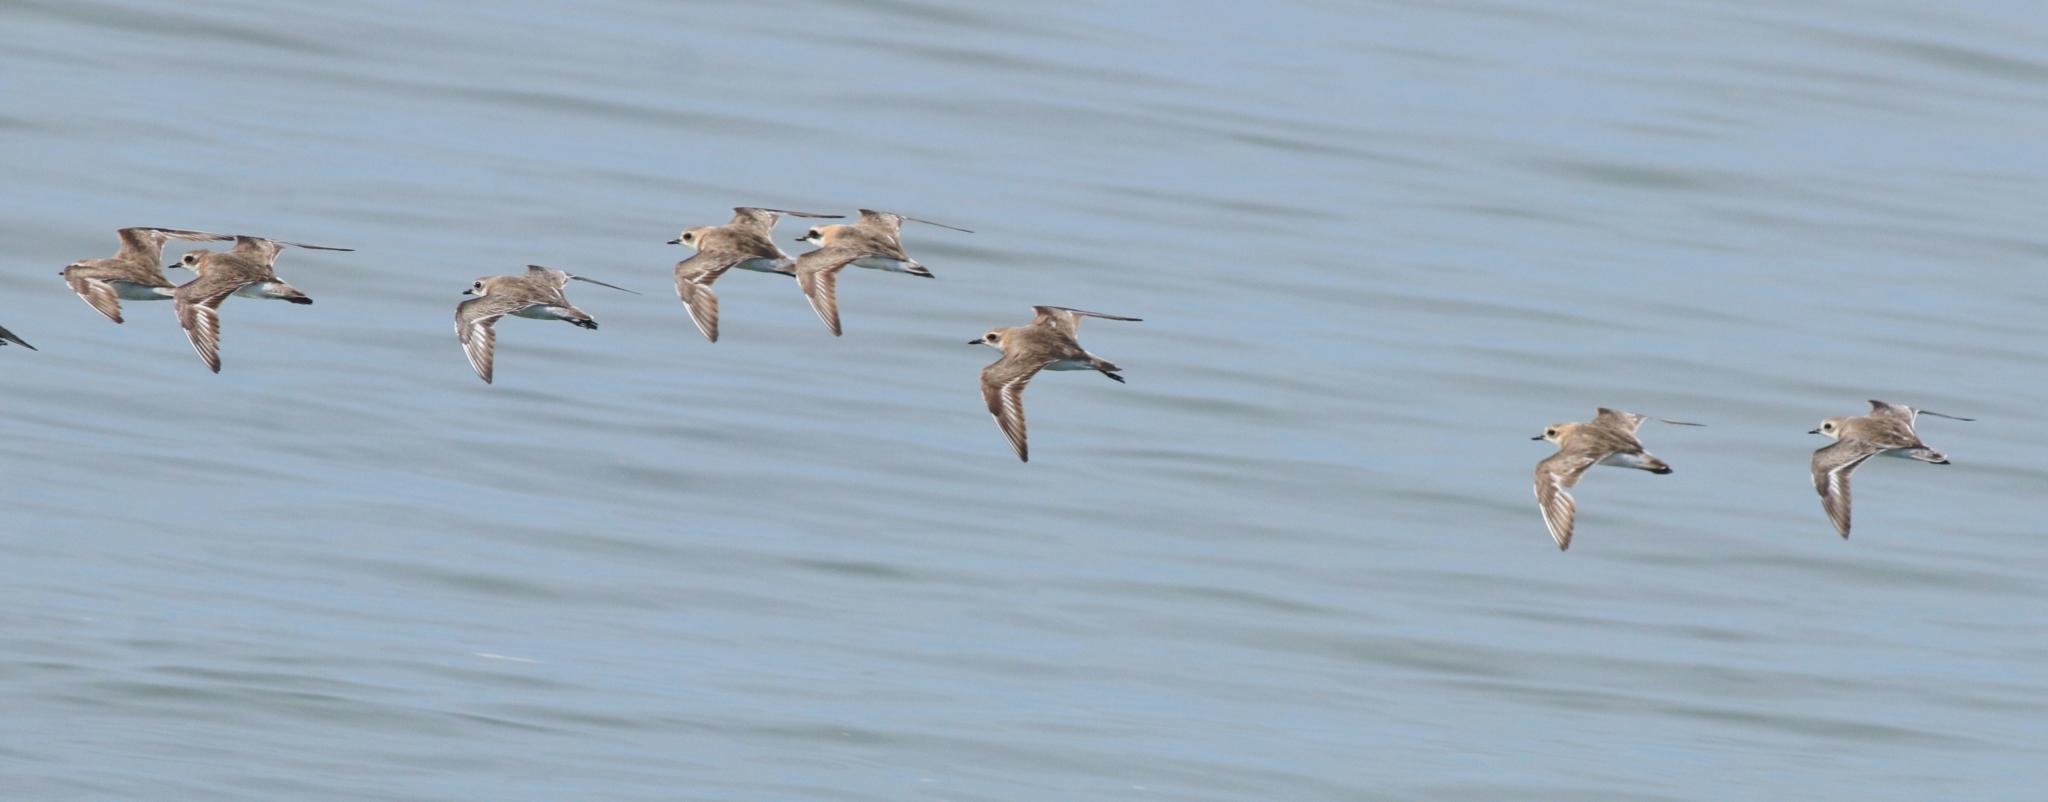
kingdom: Animalia
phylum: Chordata
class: Aves
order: Charadriiformes
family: Charadriidae
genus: Anarhynchus
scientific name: Anarhynchus
